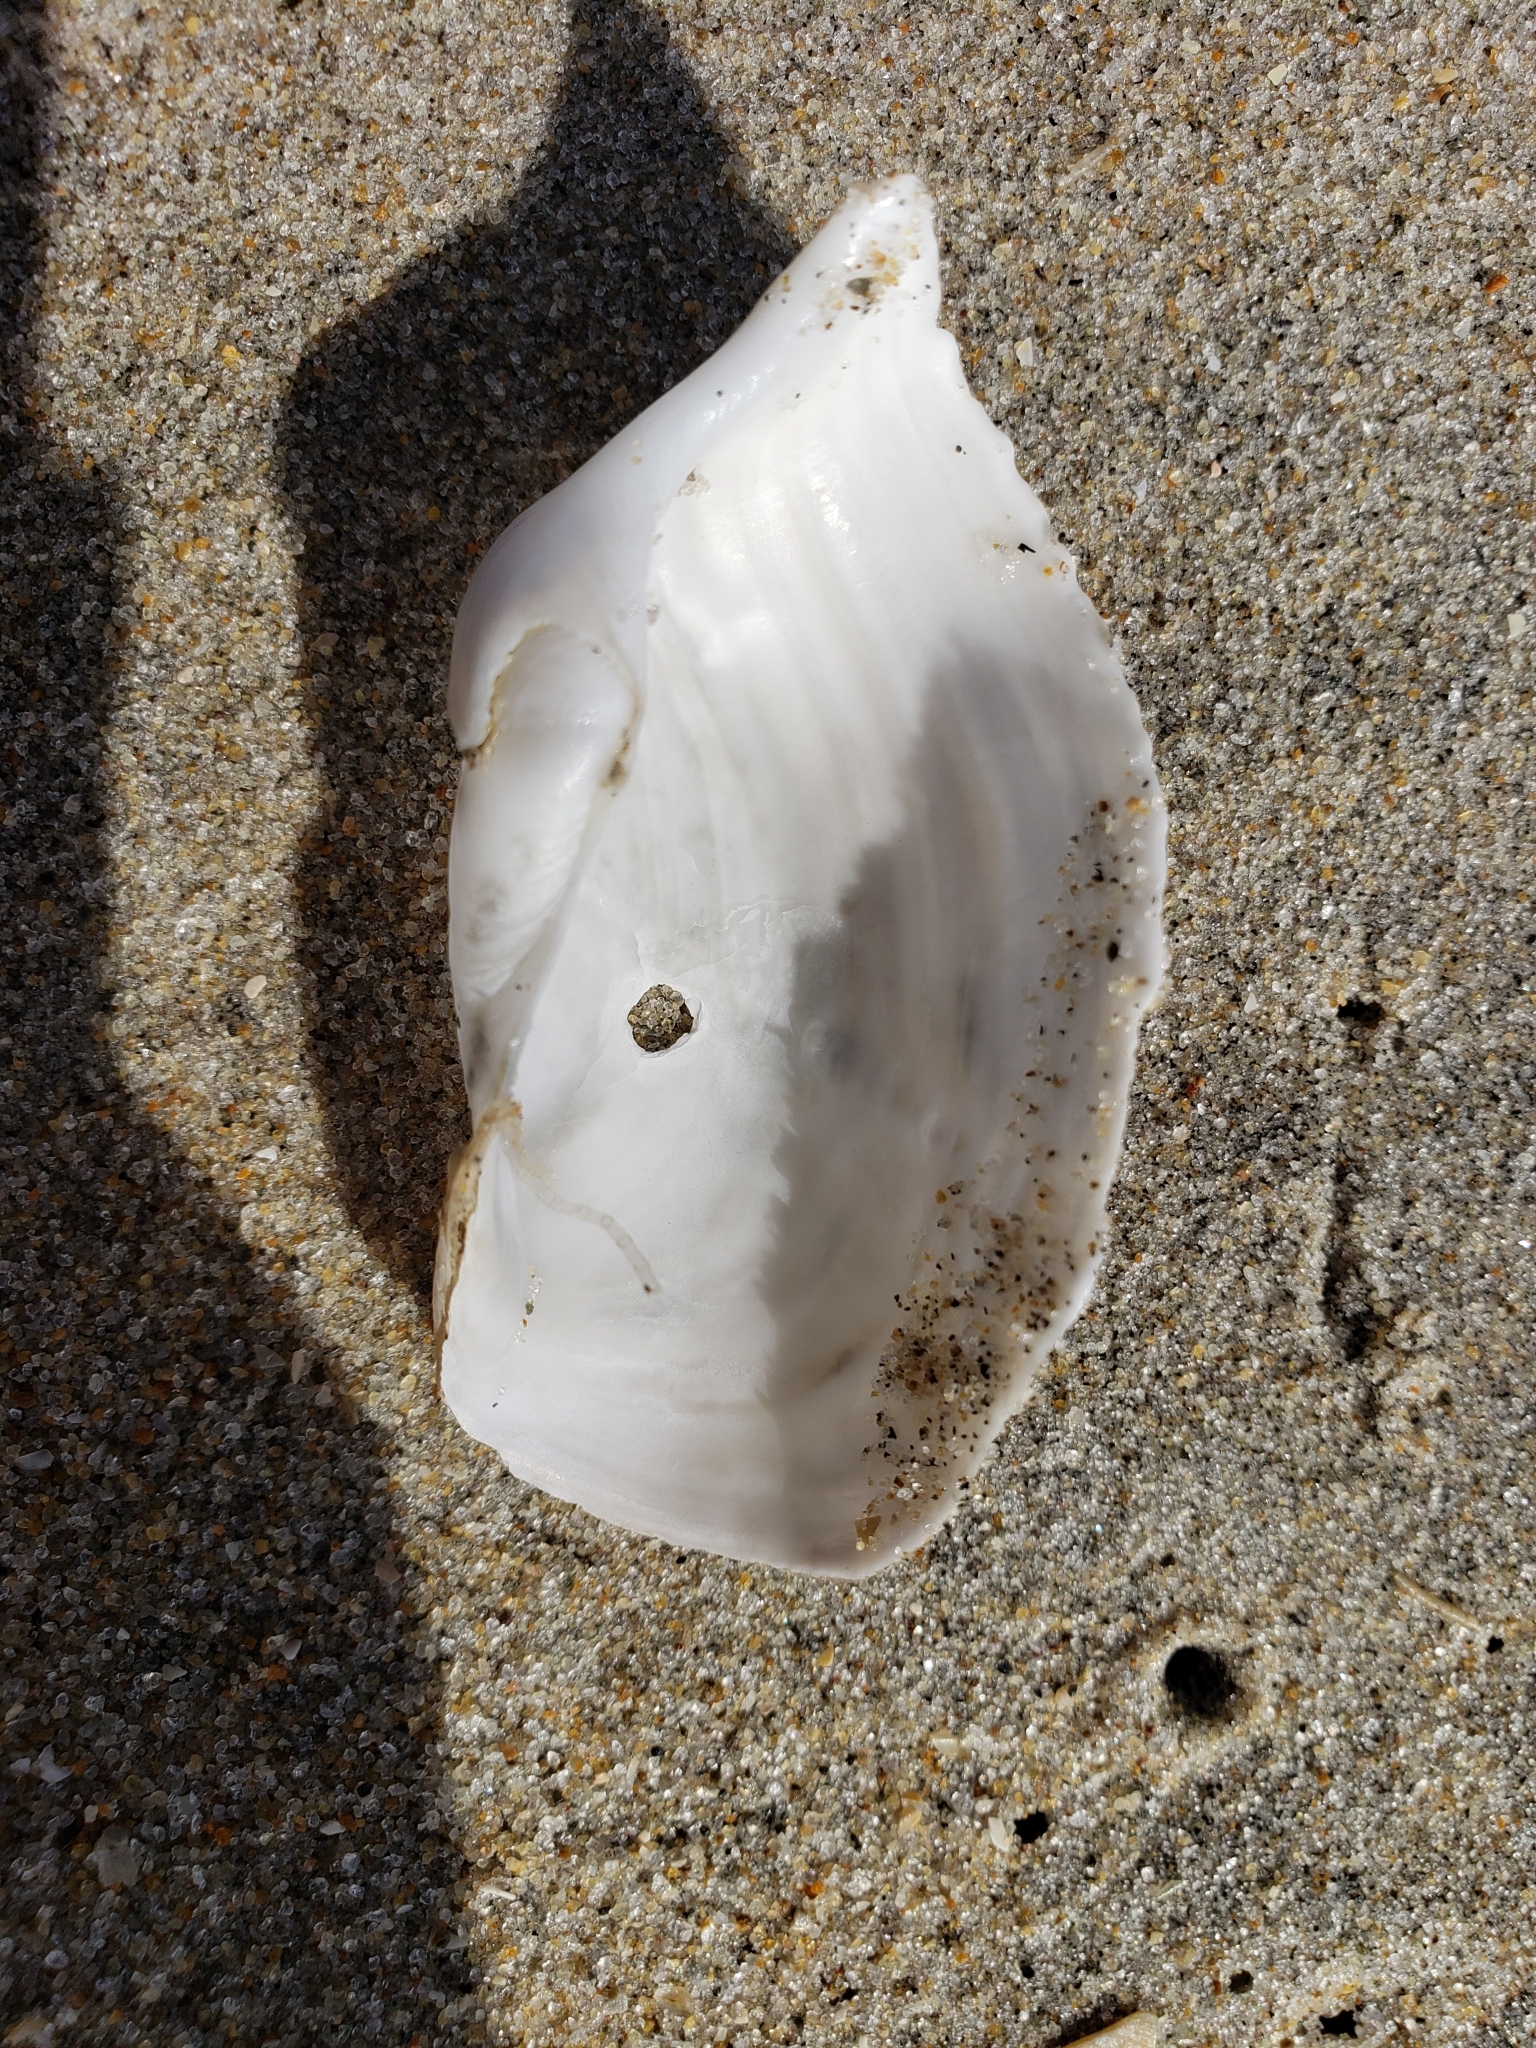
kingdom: Animalia
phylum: Mollusca
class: Bivalvia
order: Myida
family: Pholadidae
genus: Zirfaea
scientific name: Zirfaea pilsbryi
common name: Rough piddock
